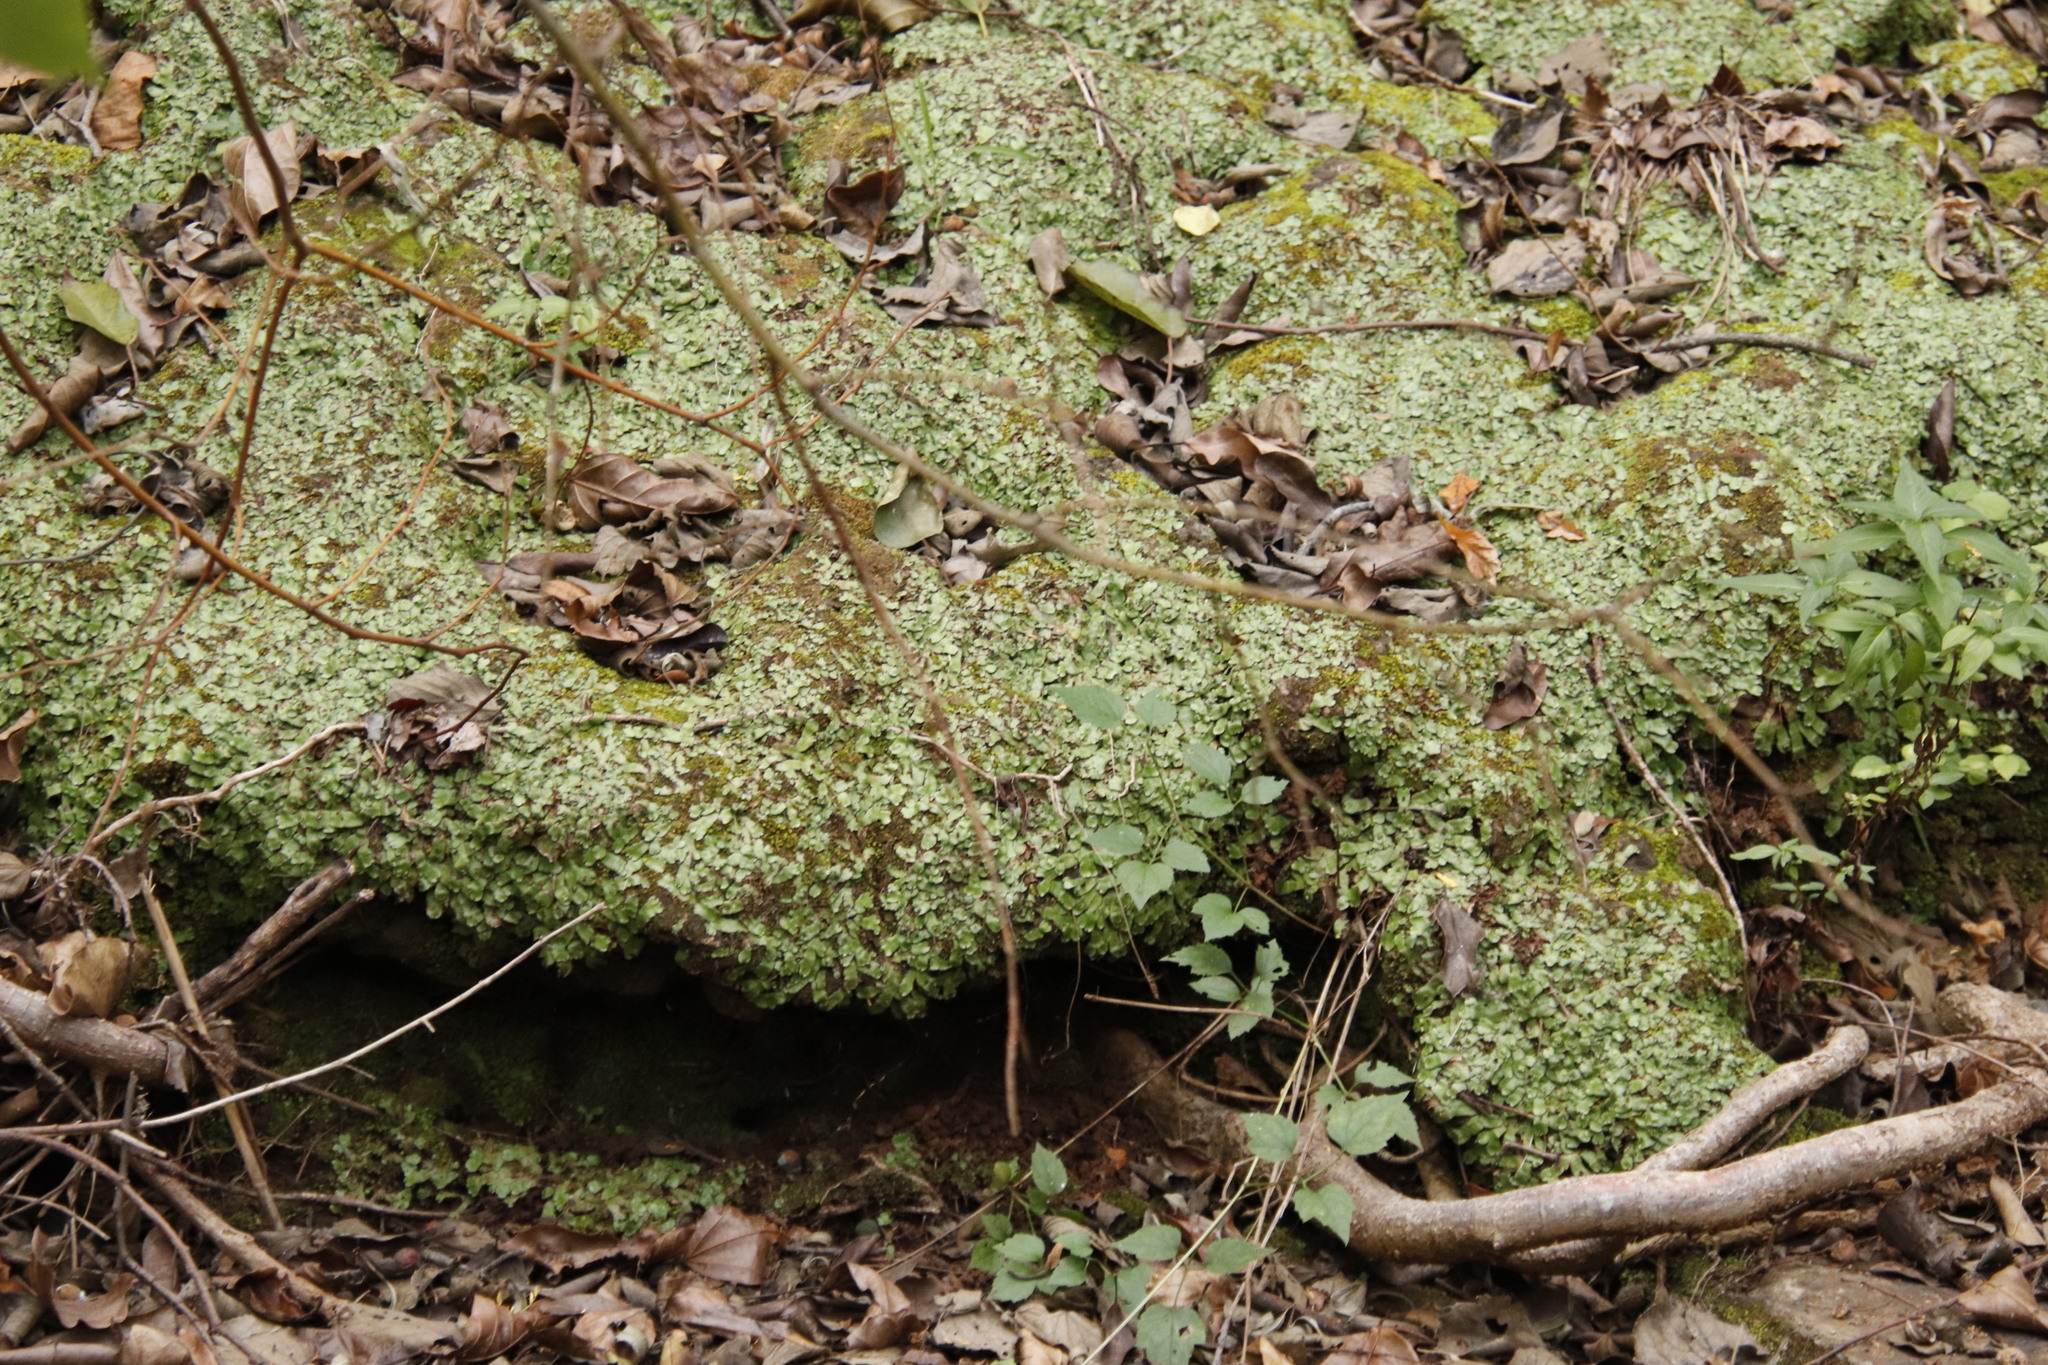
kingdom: Plantae
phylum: Marchantiophyta
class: Marchantiopsida
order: Marchantiales
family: Aytoniaceae
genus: Plagiochasma
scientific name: Plagiochasma appendiculatum
